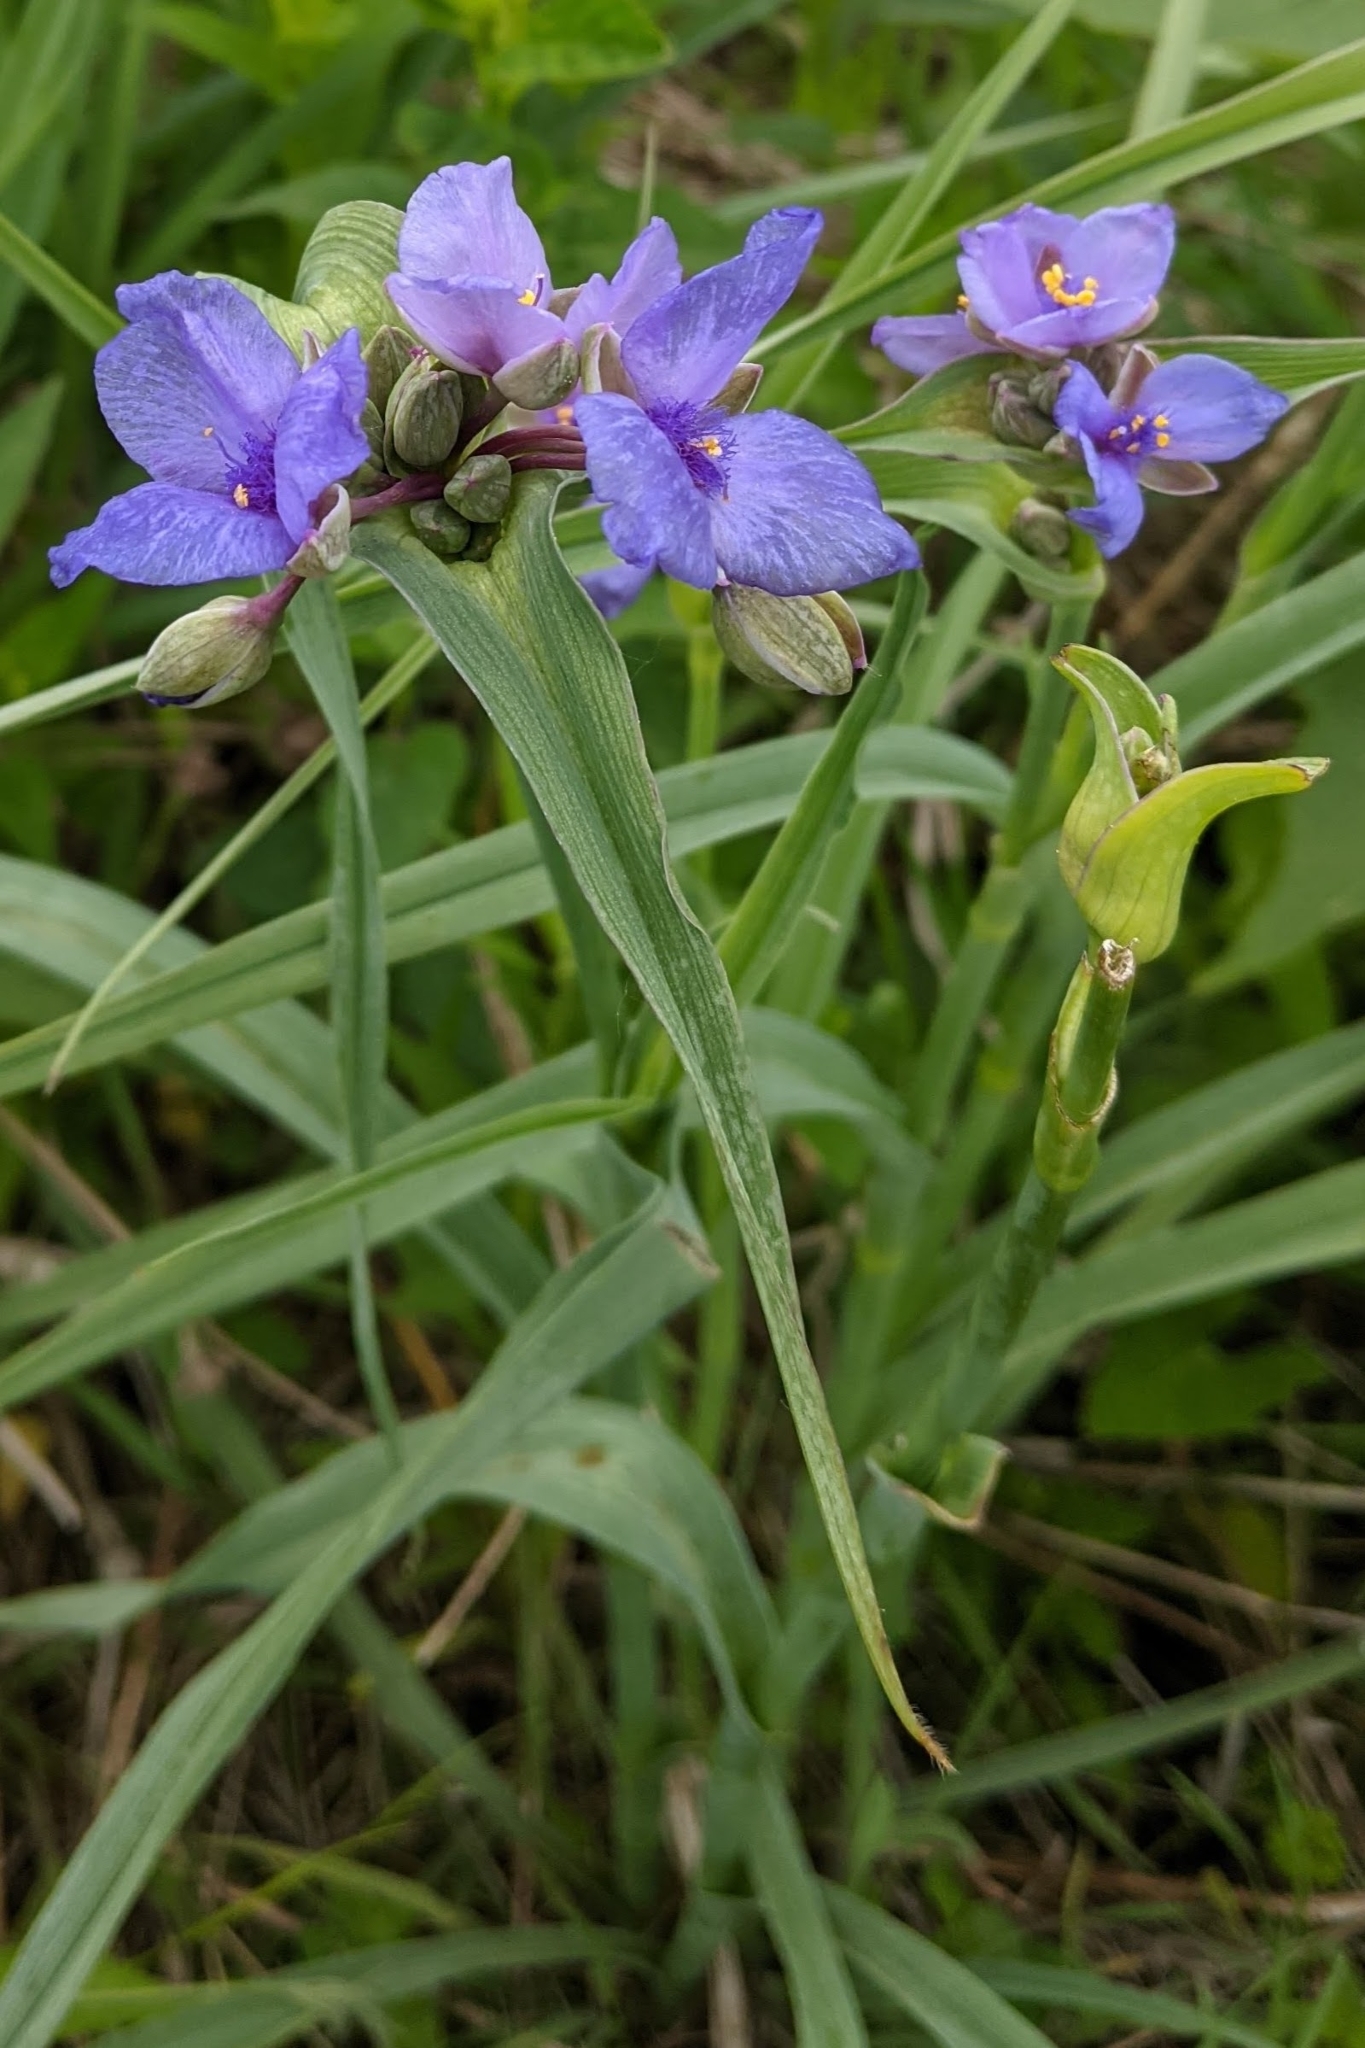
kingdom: Plantae
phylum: Tracheophyta
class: Liliopsida
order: Commelinales
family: Commelinaceae
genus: Tradescantia
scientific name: Tradescantia ohiensis
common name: Ohio spiderwort
